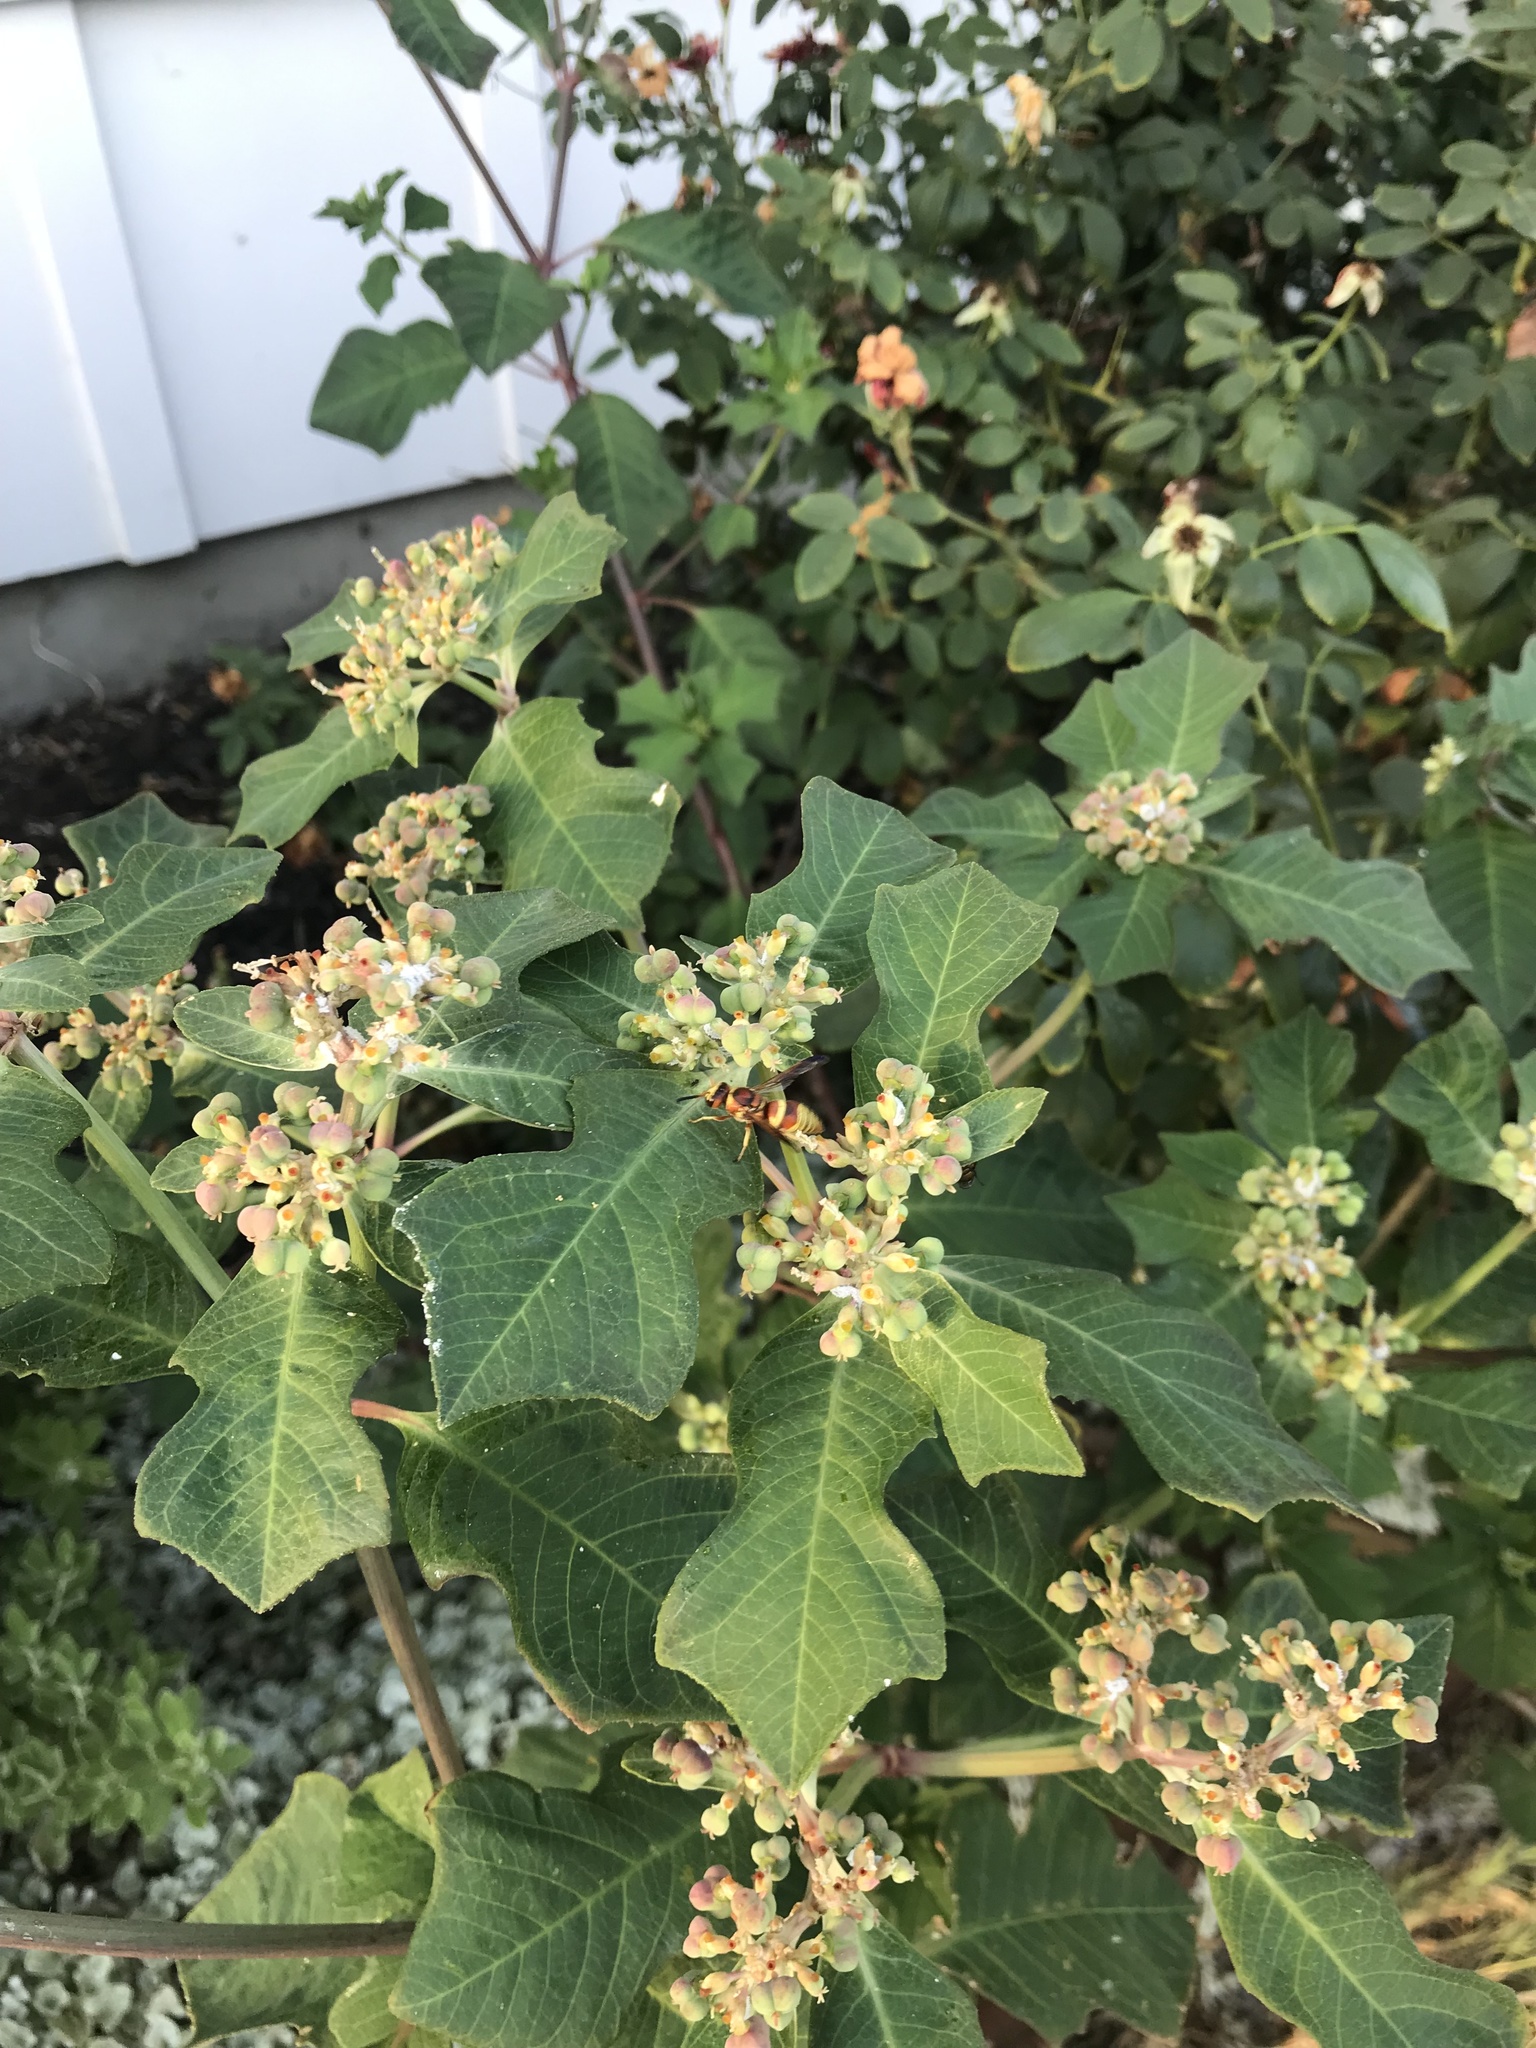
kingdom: Animalia
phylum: Arthropoda
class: Insecta
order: Hymenoptera
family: Eumenidae
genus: Euodynerus
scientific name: Euodynerus pratensis
